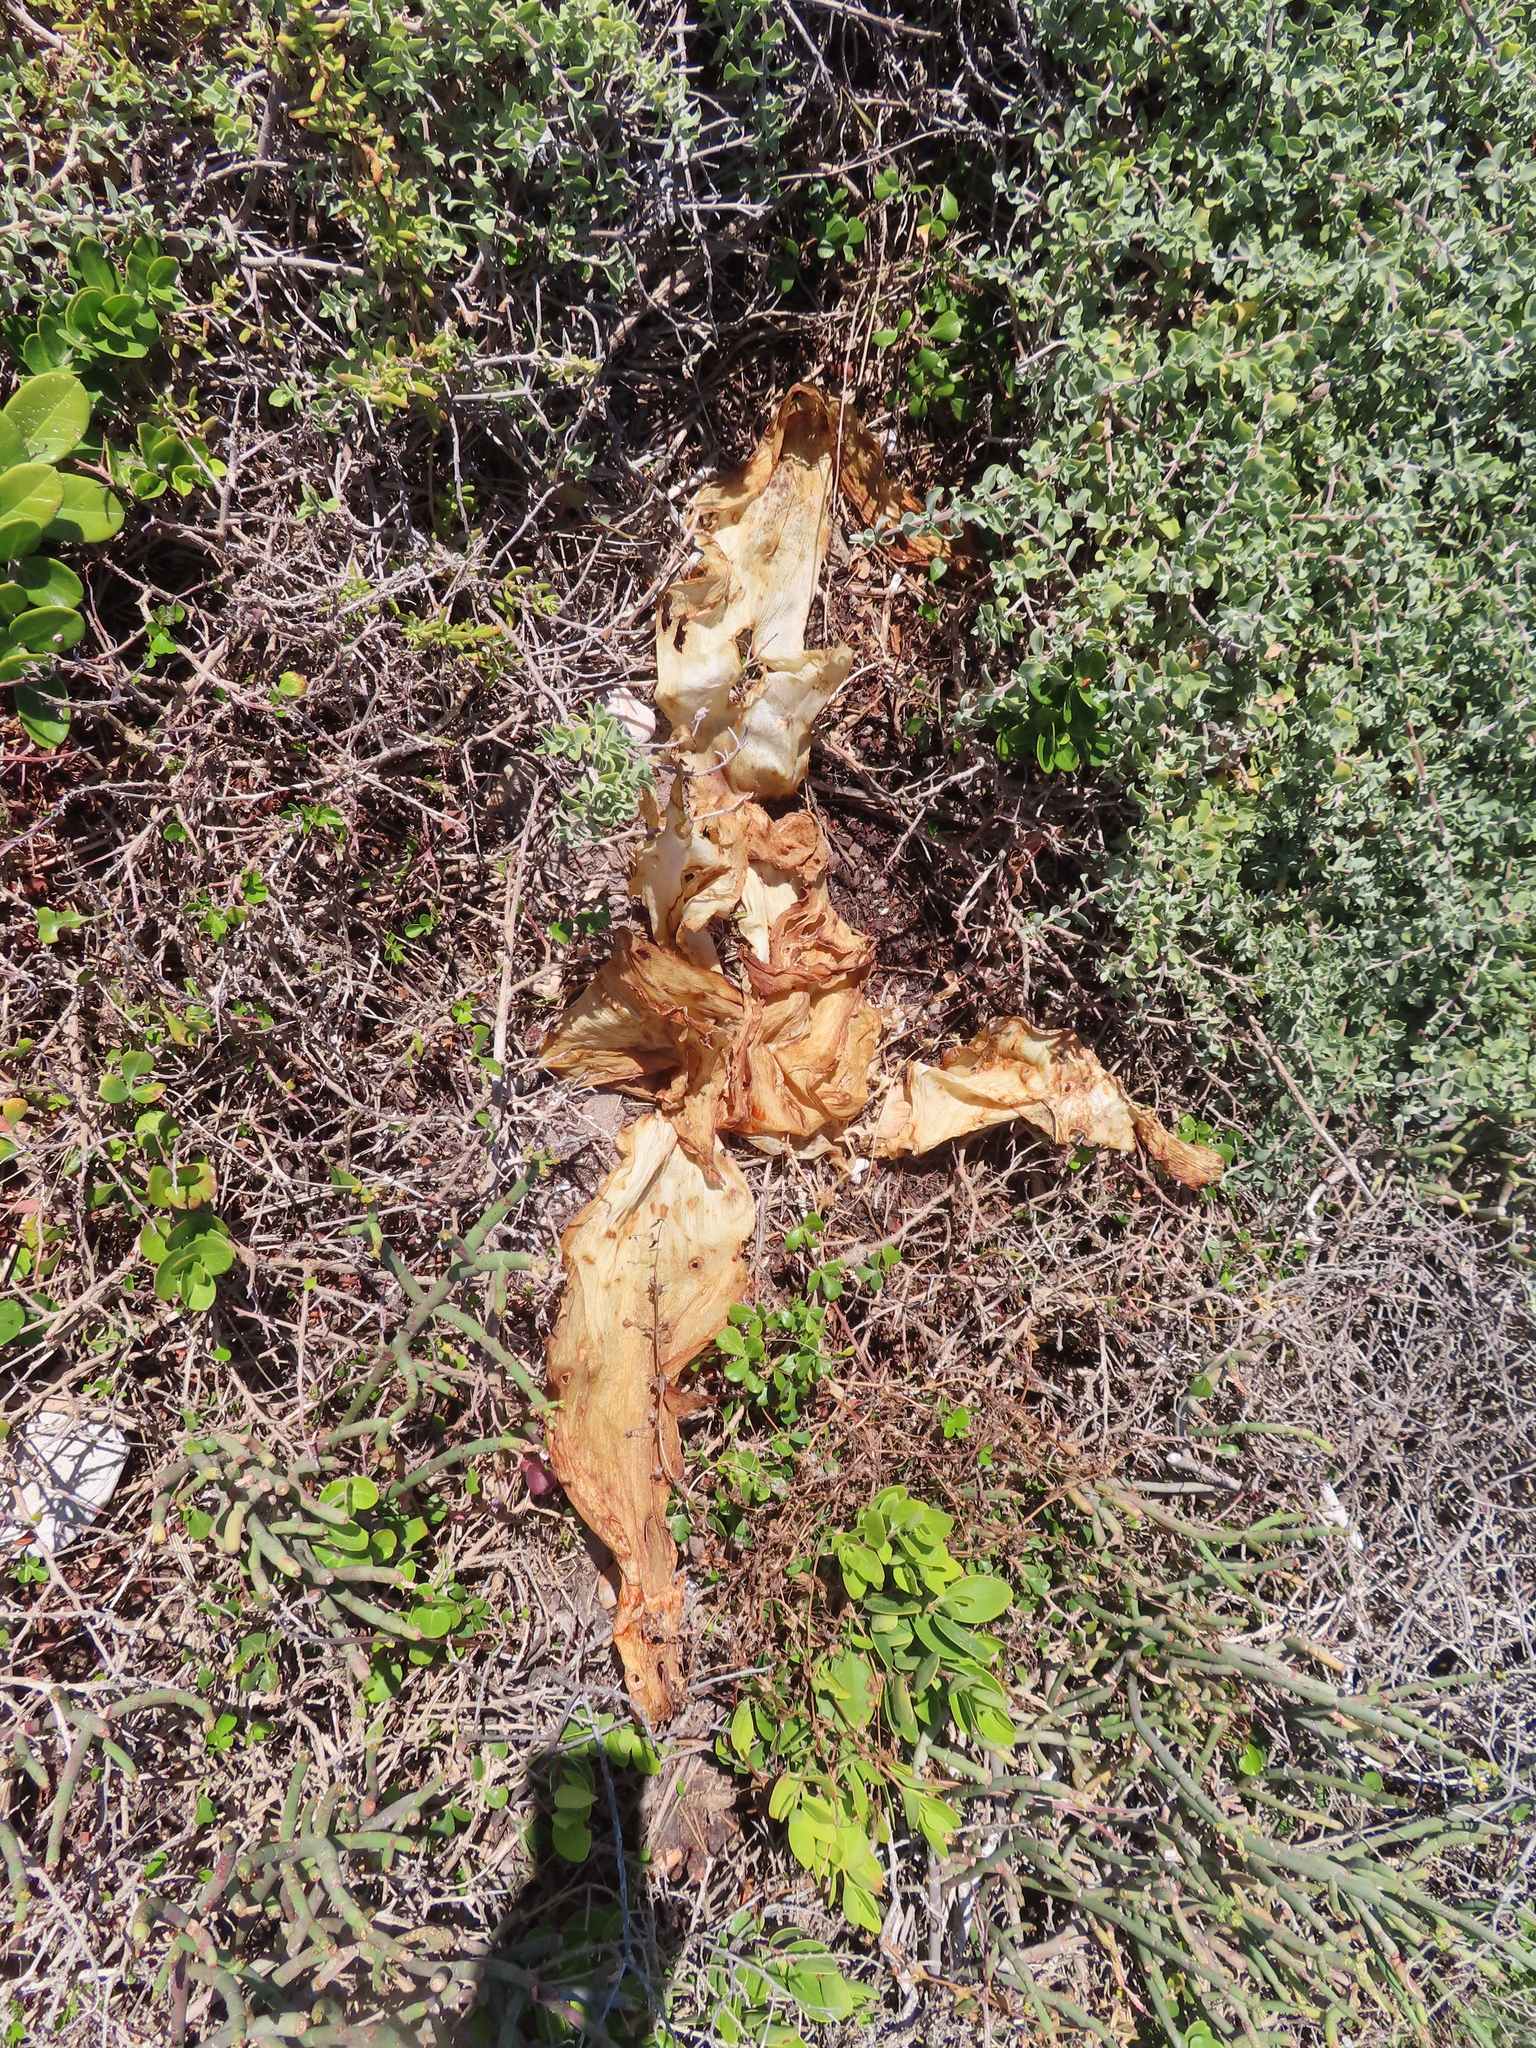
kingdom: Plantae
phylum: Tracheophyta
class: Liliopsida
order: Asparagales
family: Amaryllidaceae
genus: Brunsvigia
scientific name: Brunsvigia orientalis
